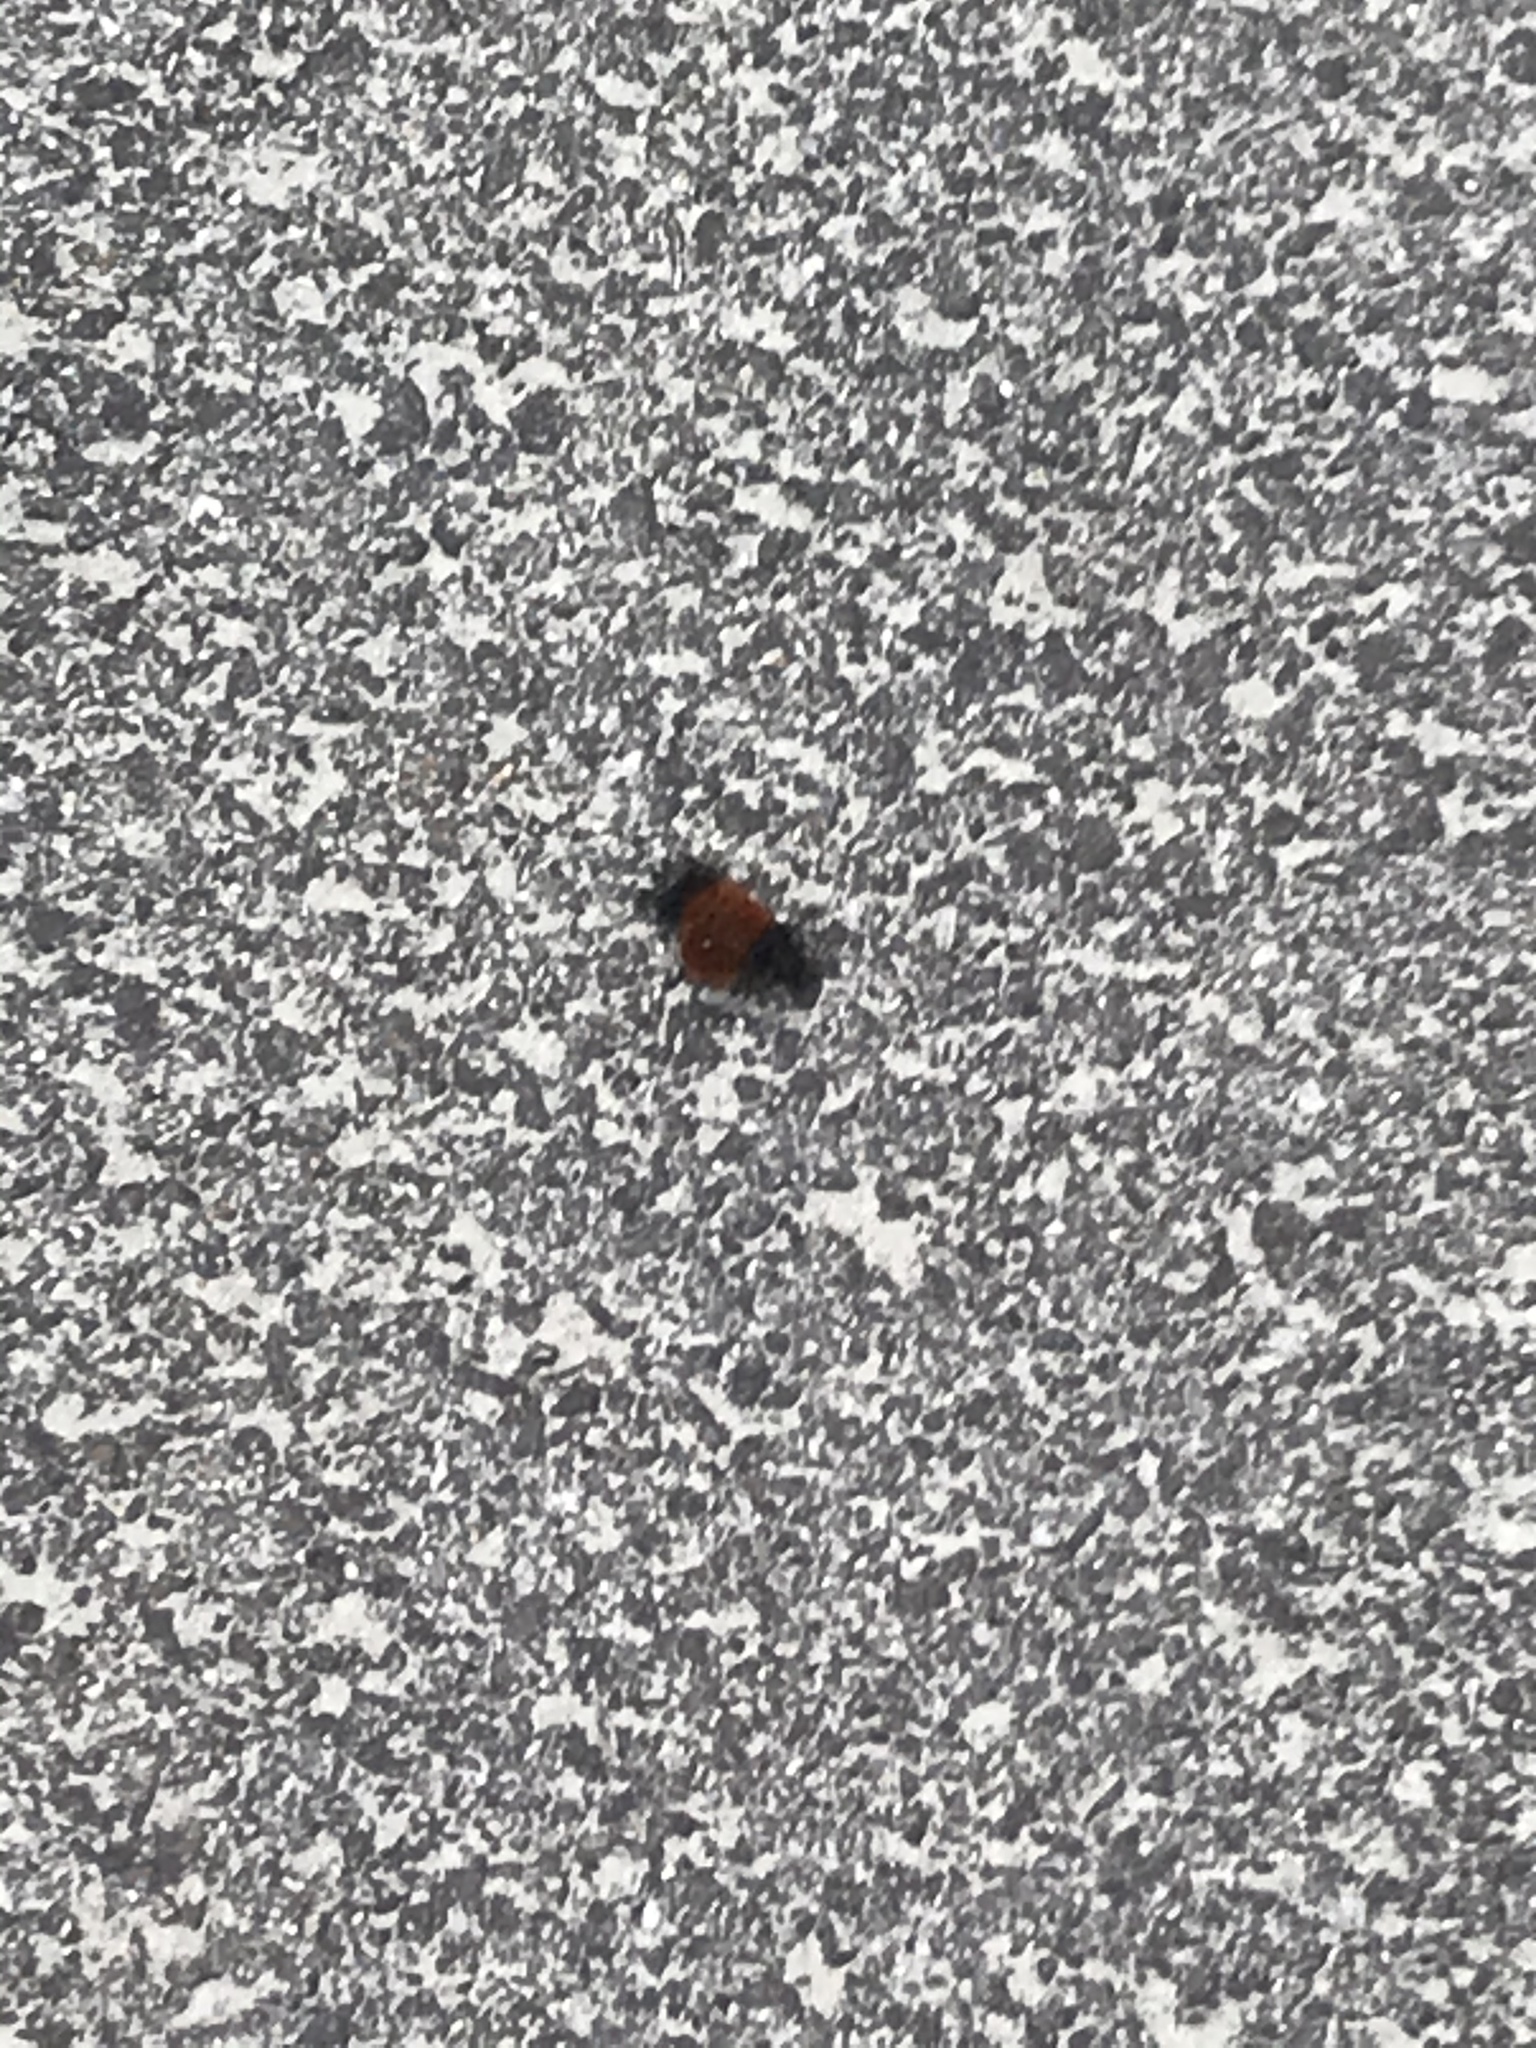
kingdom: Animalia
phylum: Arthropoda
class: Insecta
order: Lepidoptera
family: Erebidae
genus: Pyrrharctia
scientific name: Pyrrharctia isabella
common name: Isabella tiger moth
